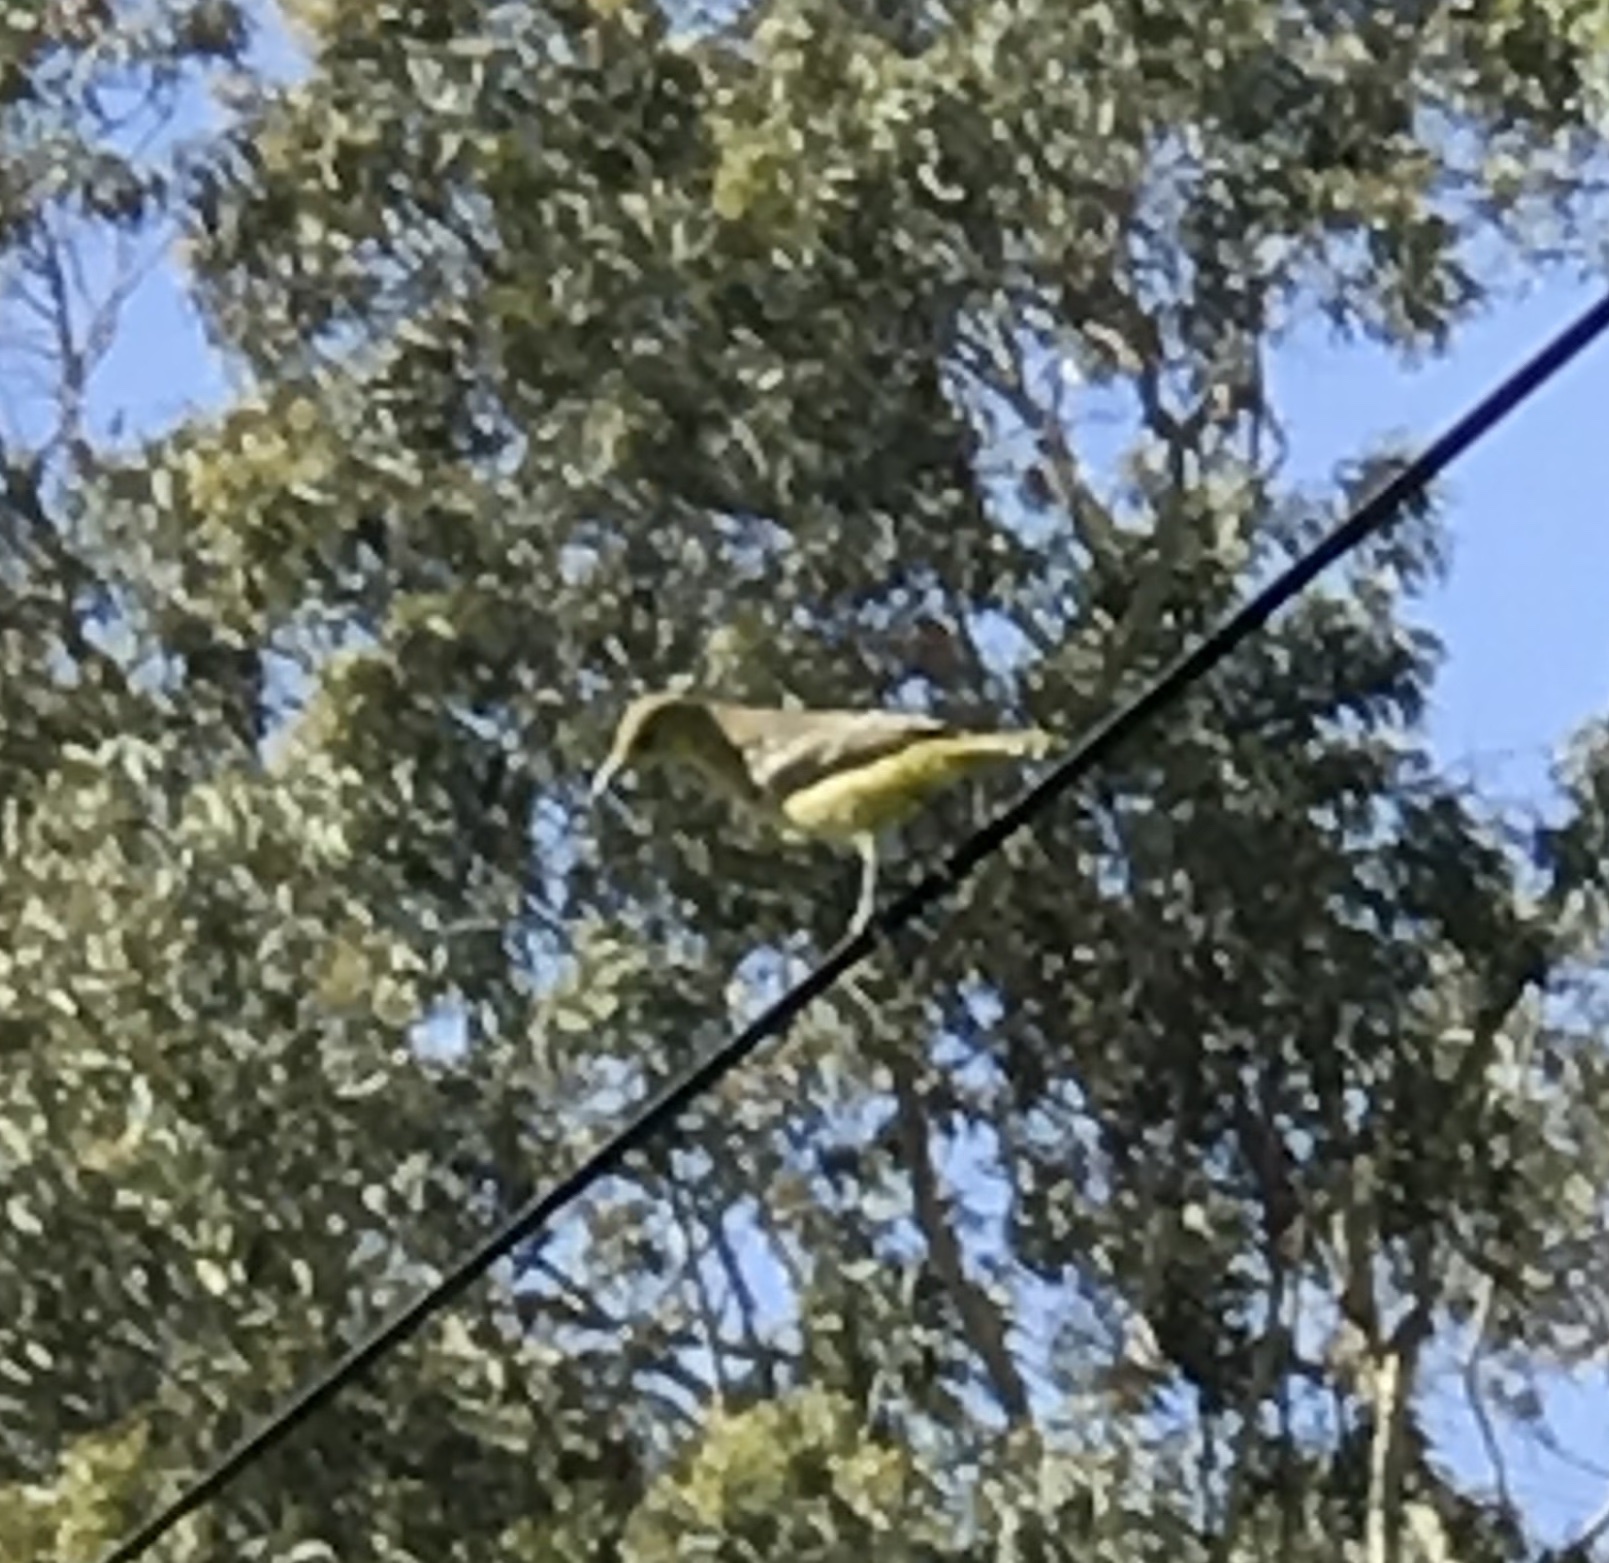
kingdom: Animalia
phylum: Chordata
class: Aves
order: Passeriformes
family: Icteridae
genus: Icterus
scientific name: Icterus cucullatus
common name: Hooded oriole
